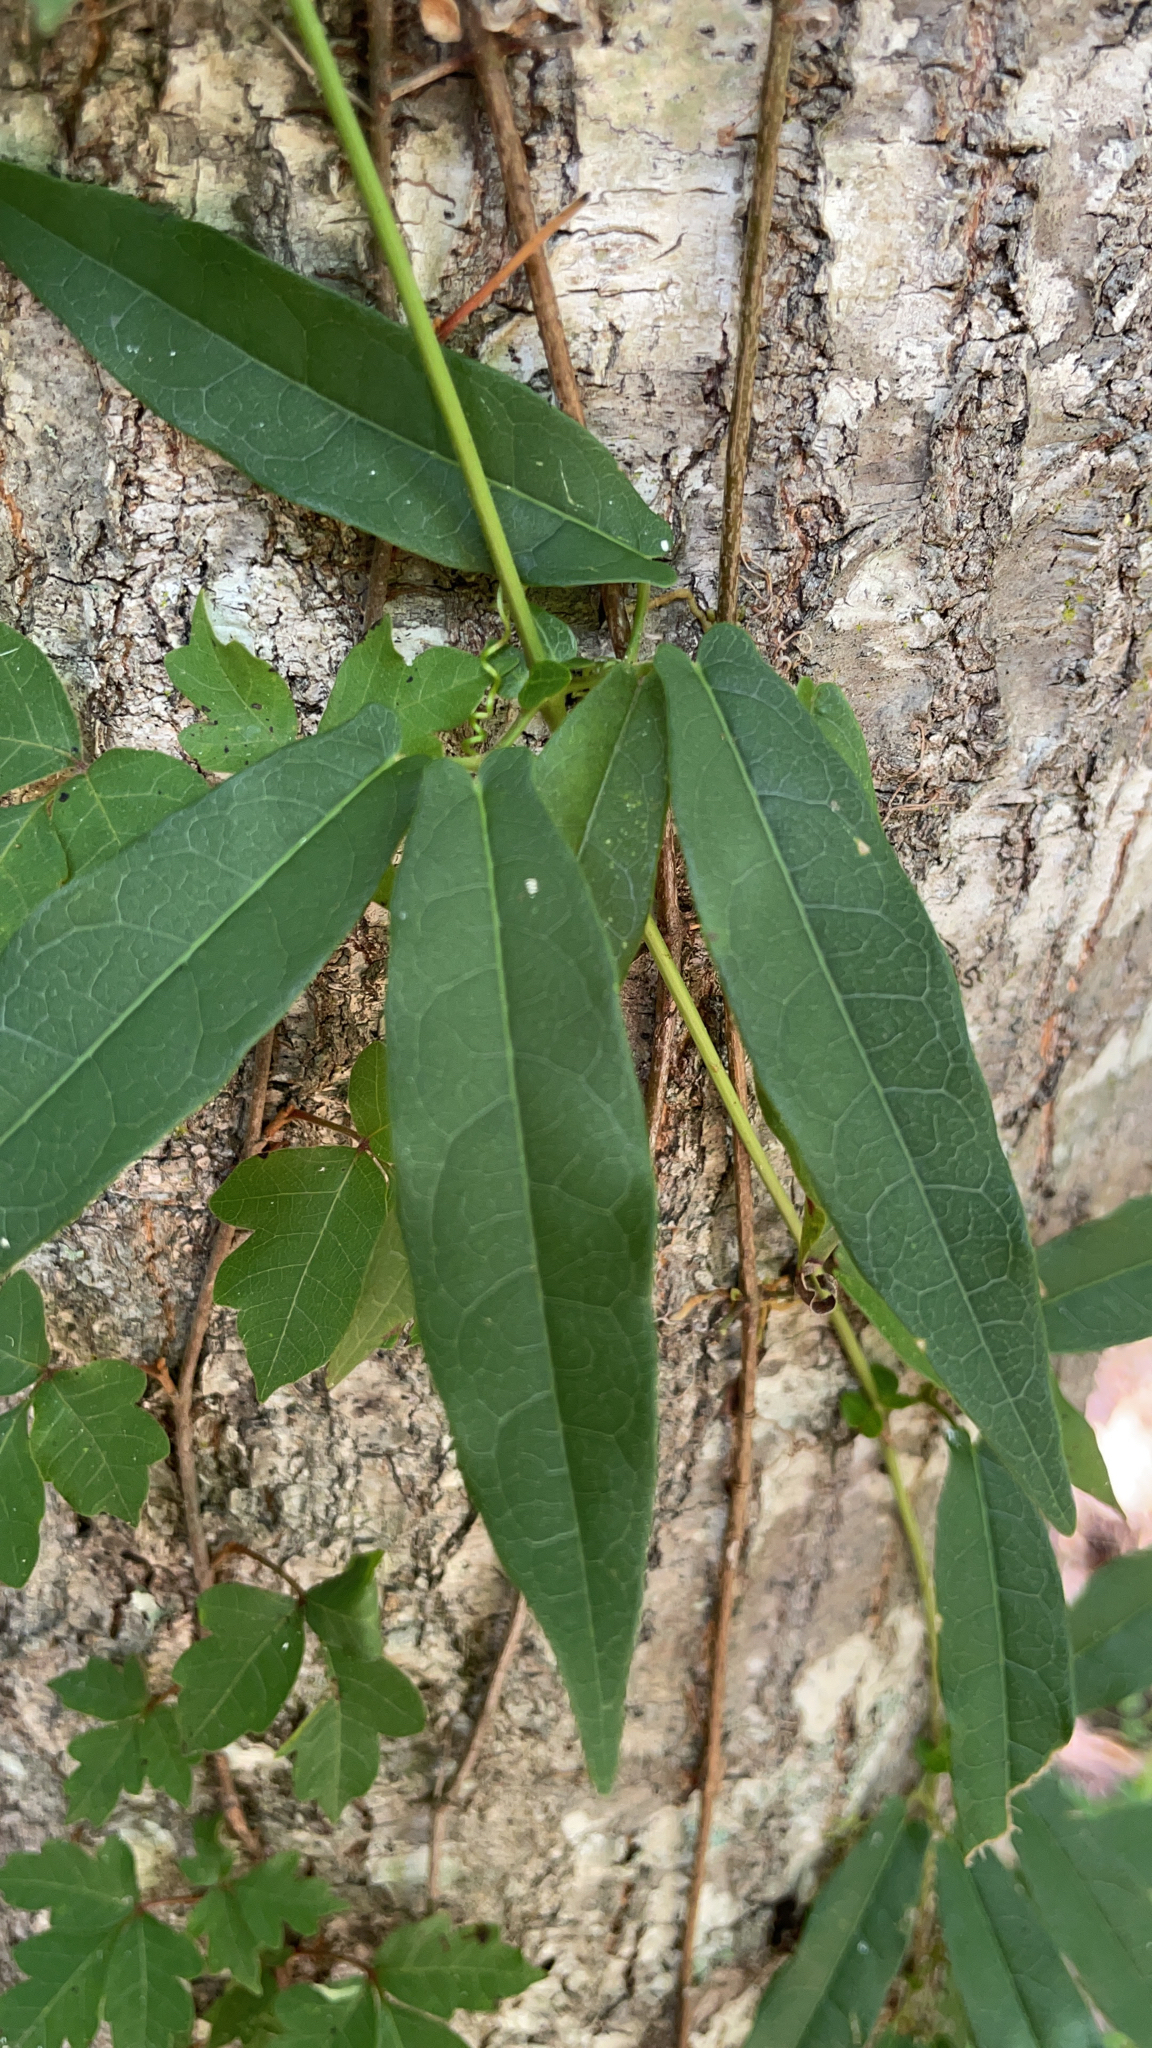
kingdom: Plantae
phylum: Tracheophyta
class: Magnoliopsida
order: Lamiales
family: Bignoniaceae
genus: Bignonia
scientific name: Bignonia capreolata
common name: Crossvine
